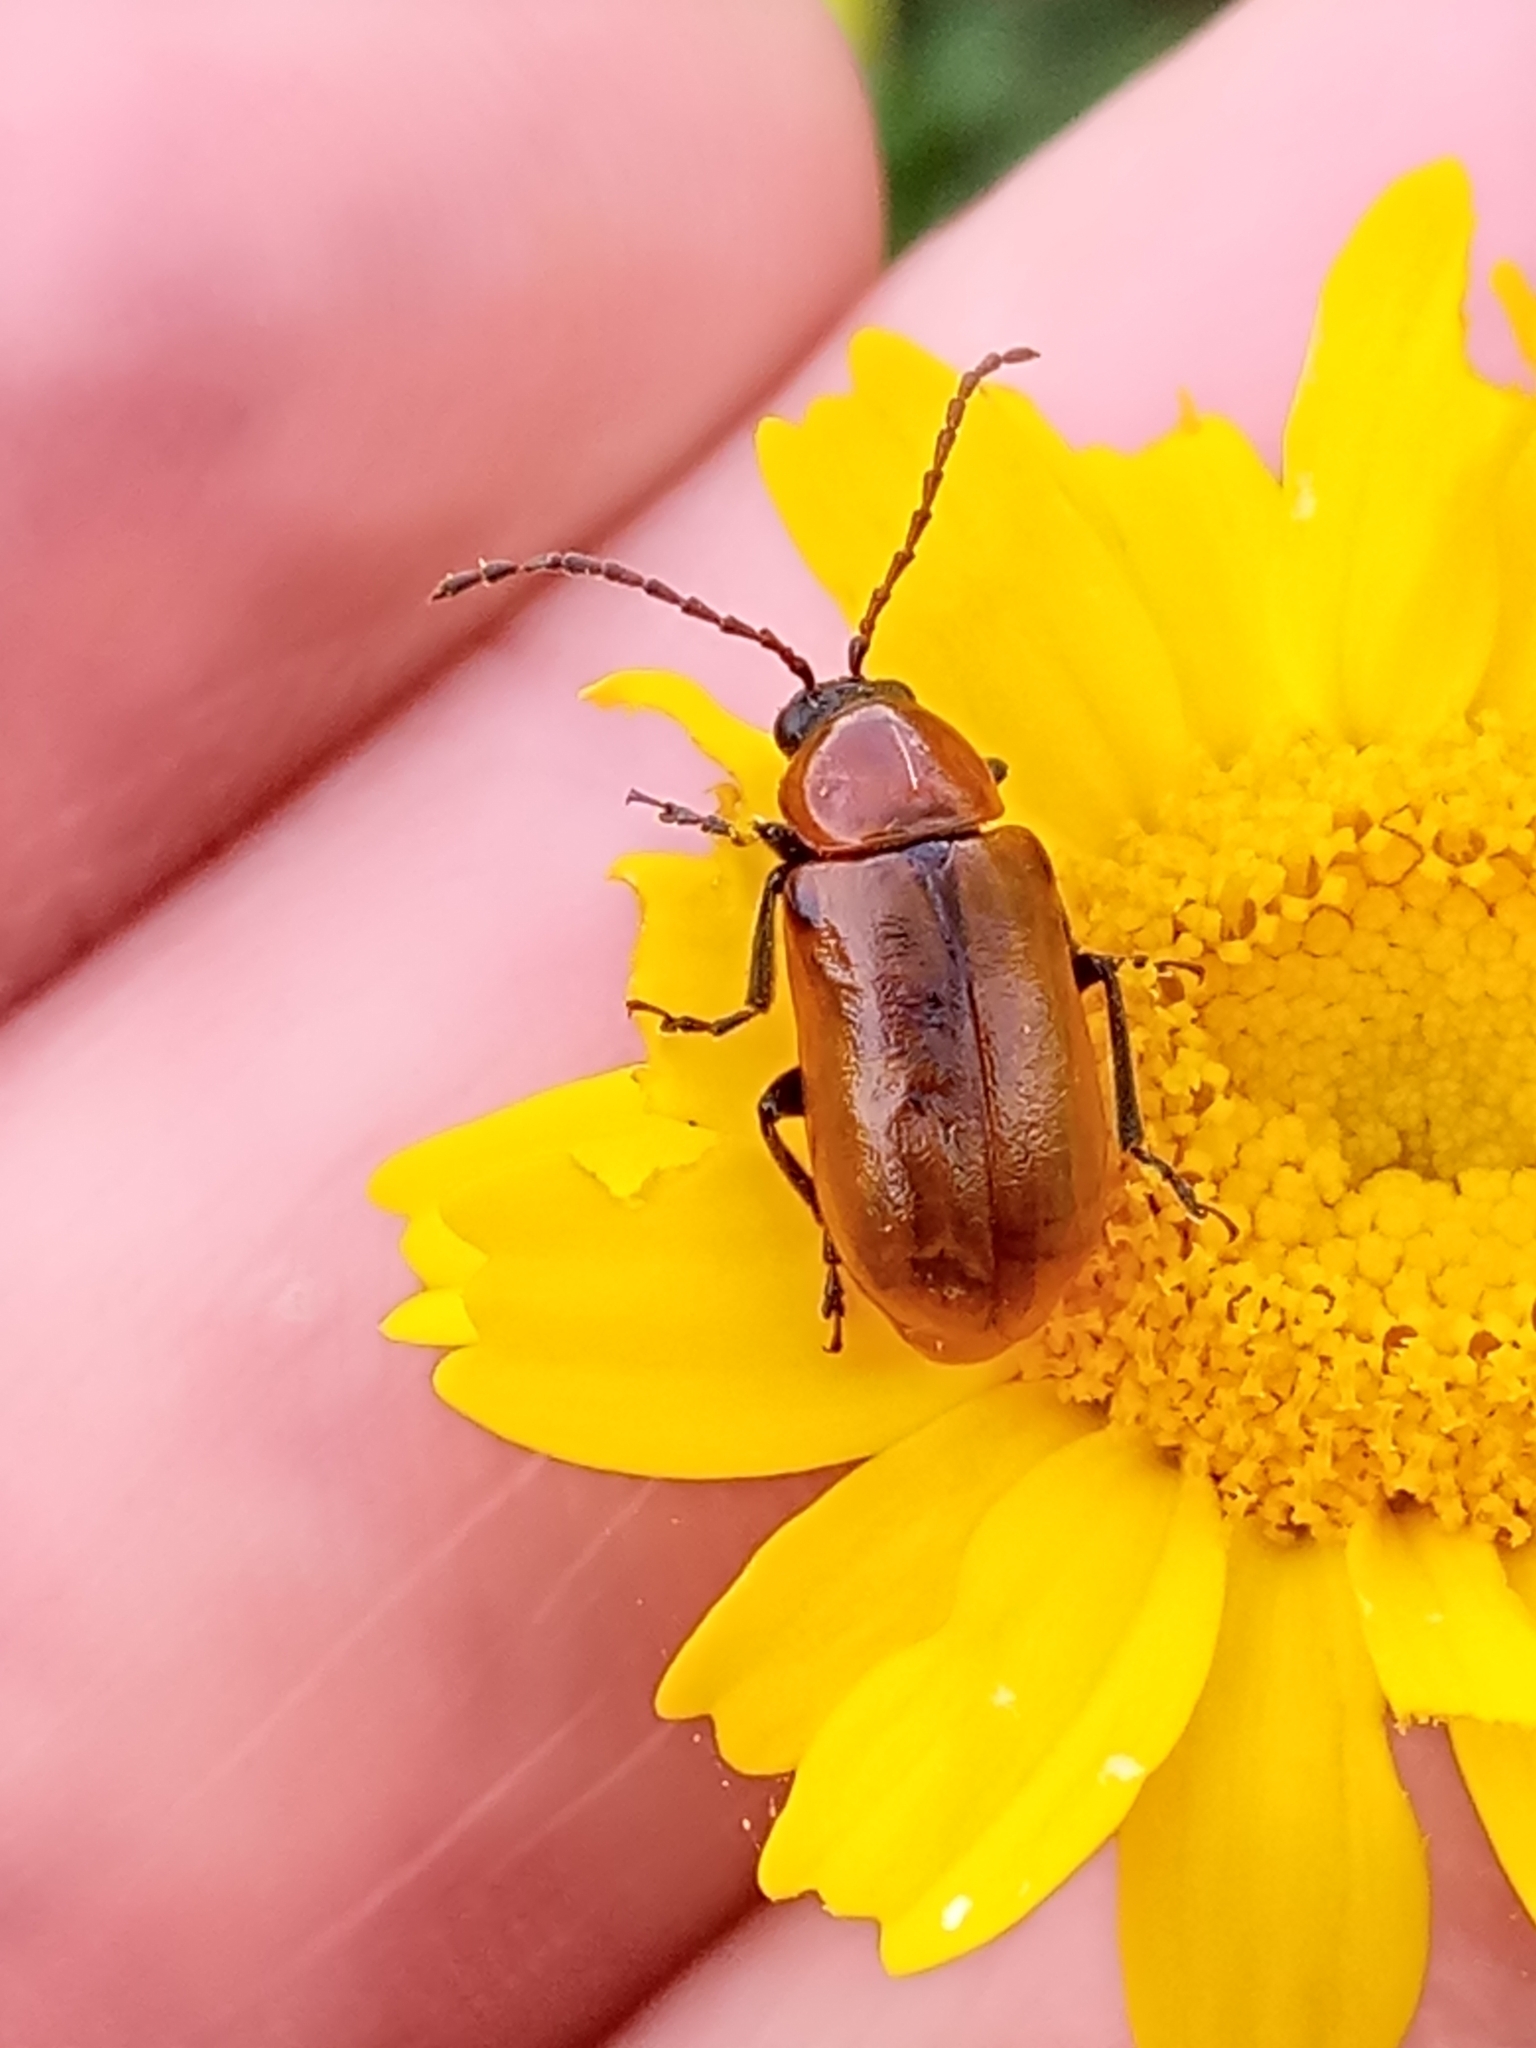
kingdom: Animalia
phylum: Arthropoda
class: Insecta
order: Coleoptera
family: Chrysomelidae
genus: Exosoma
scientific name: Exosoma lusitanicum
